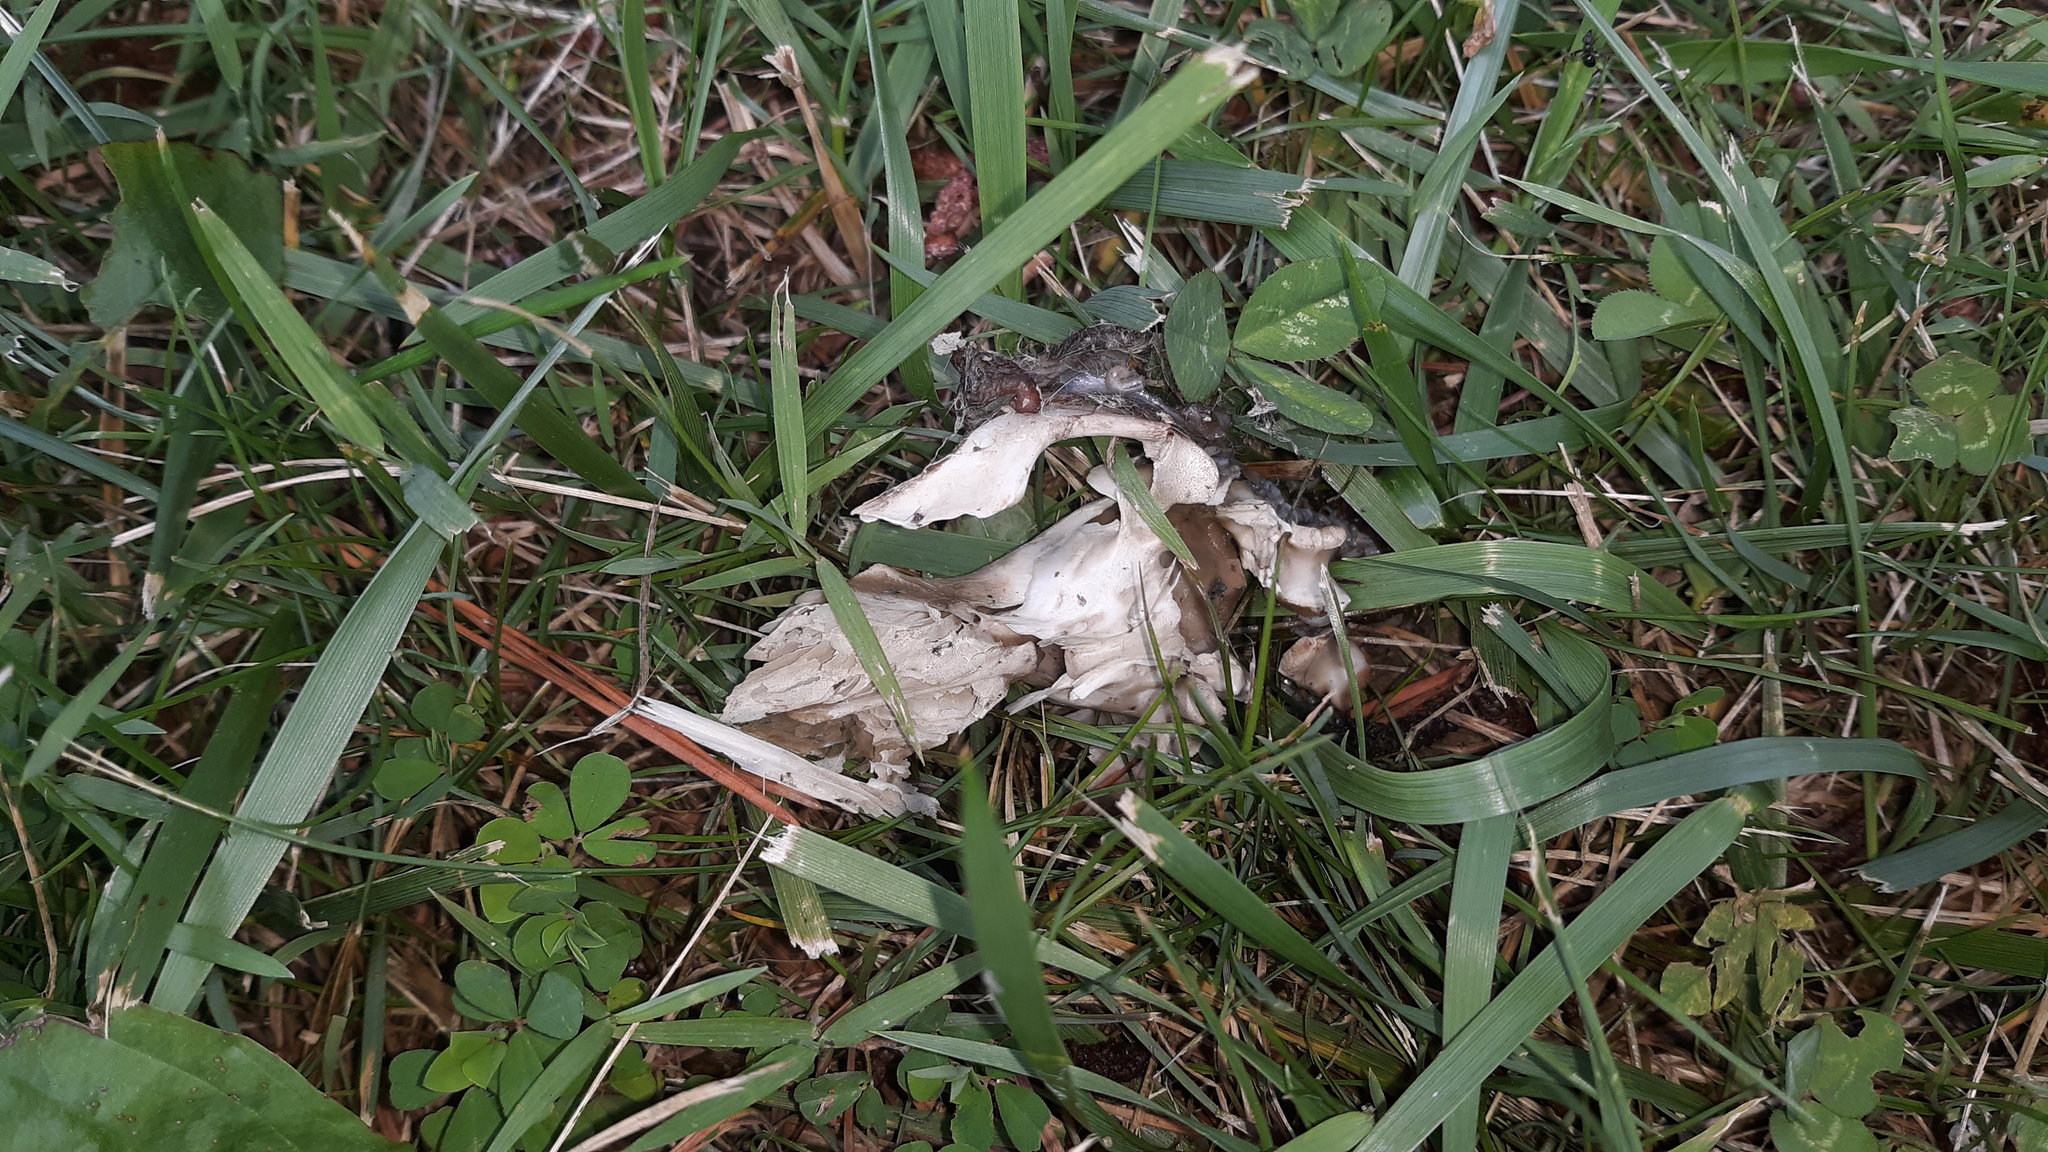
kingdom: Animalia
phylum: Chordata
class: Mammalia
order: Didelphimorphia
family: Didelphidae
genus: Didelphis
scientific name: Didelphis virginiana
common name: Virginia opossum
